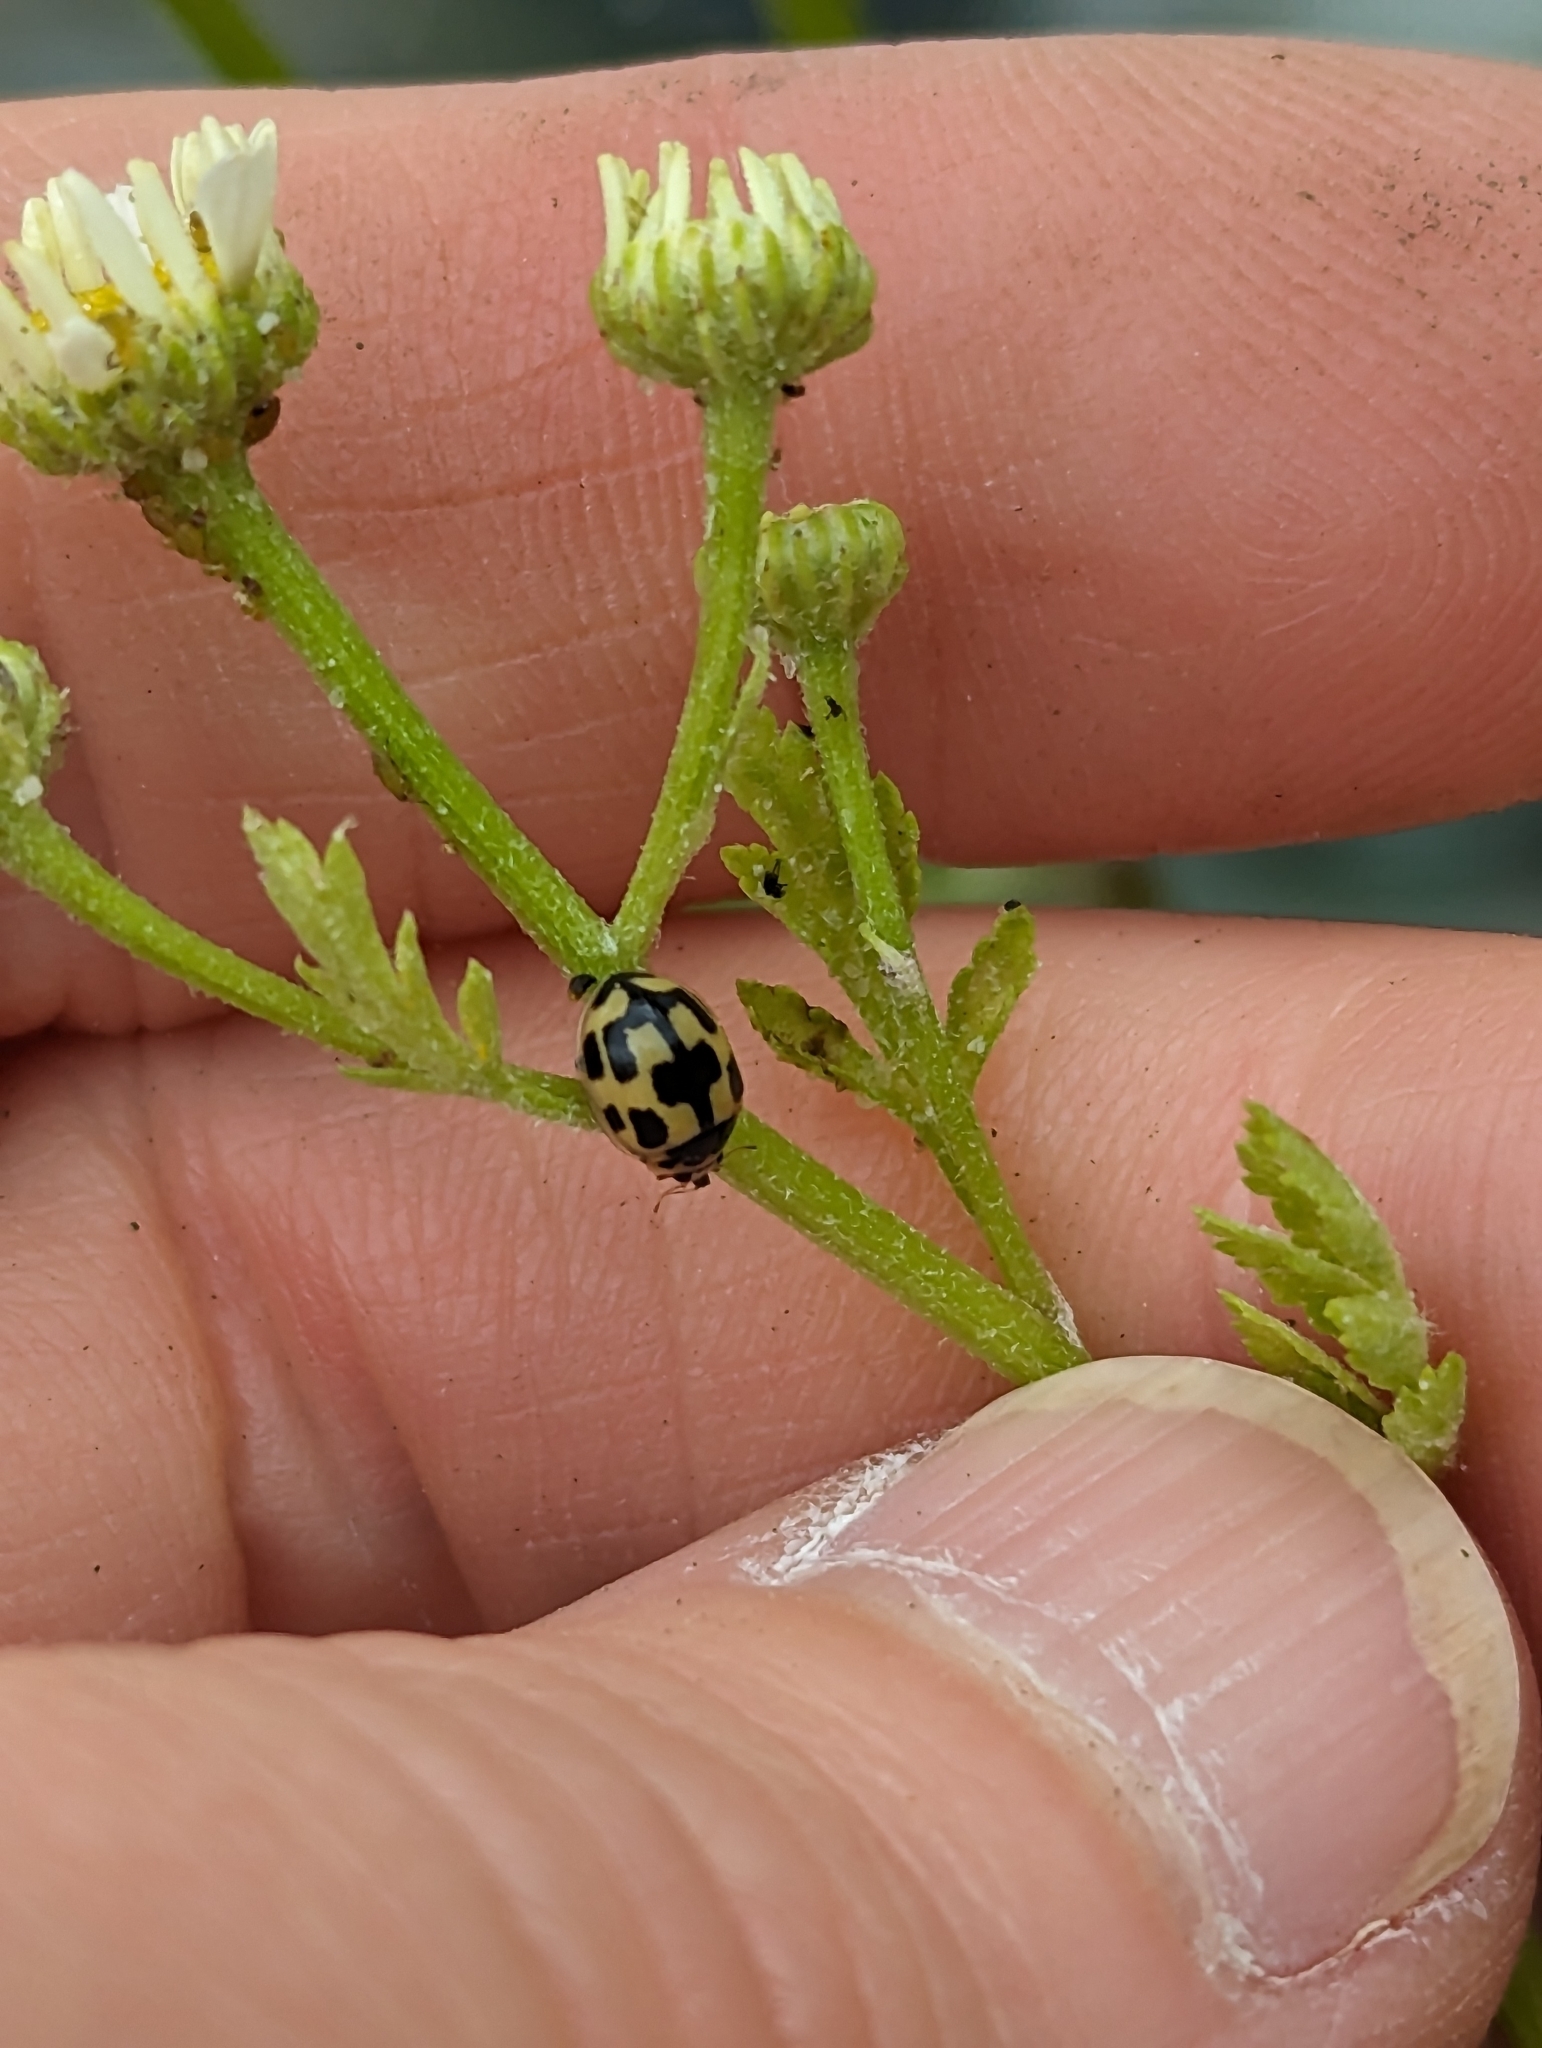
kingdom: Animalia
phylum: Arthropoda
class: Insecta
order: Coleoptera
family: Coccinellidae
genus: Propylaea
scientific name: Propylaea quatuordecimpunctata
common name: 14-spotted ladybird beetle
